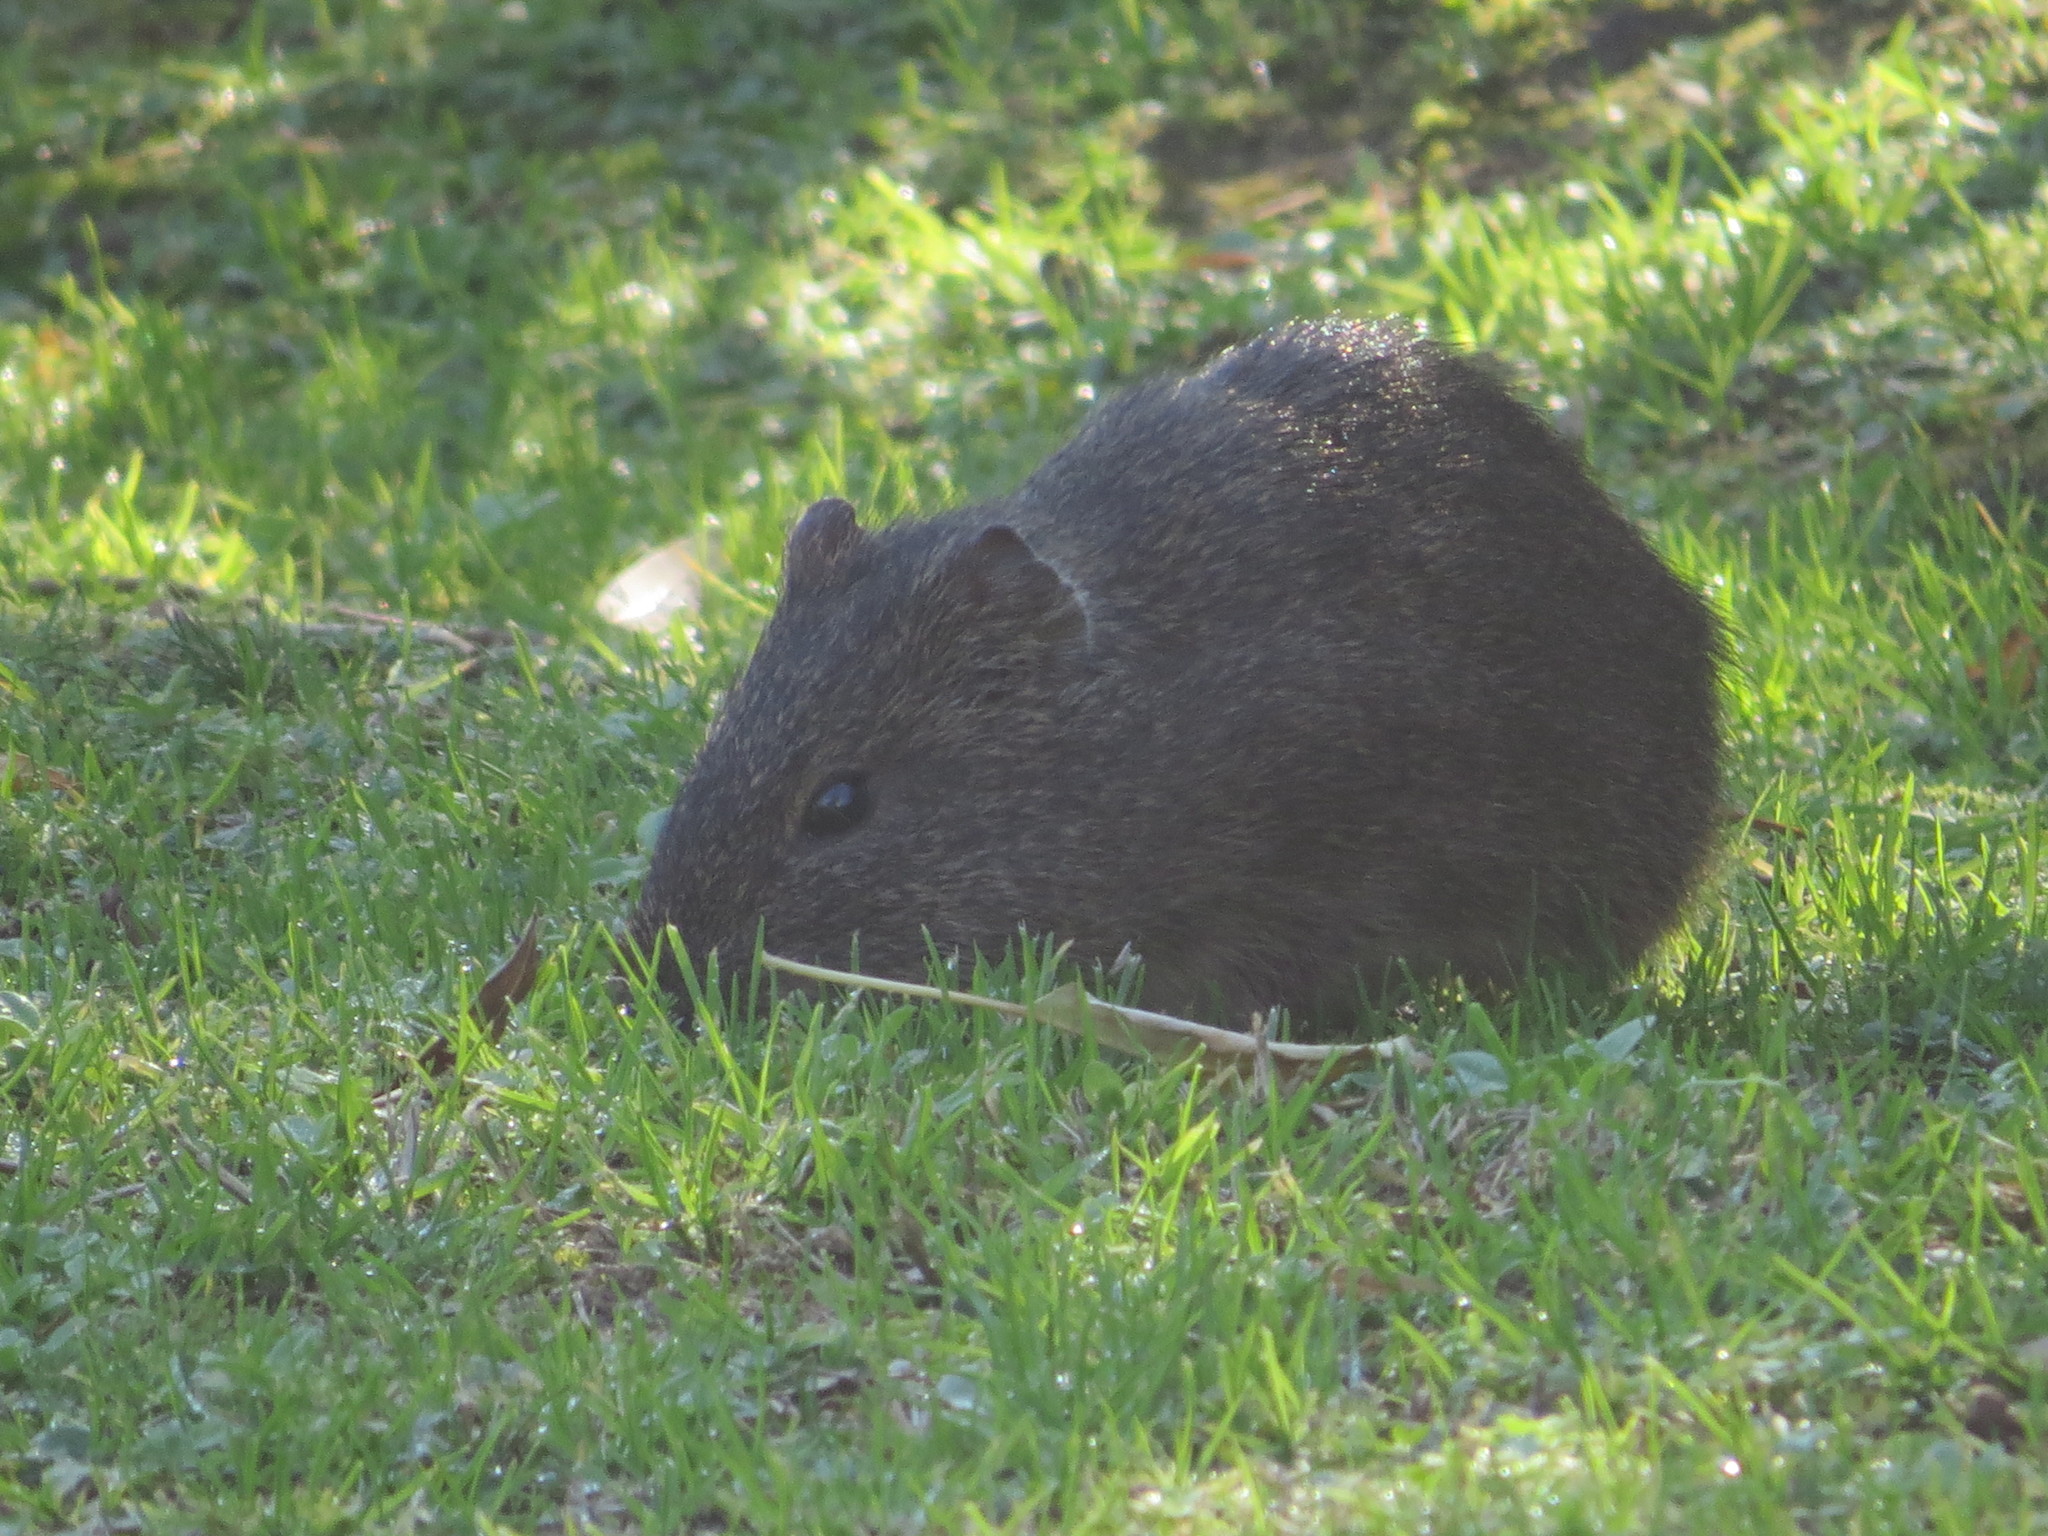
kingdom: Animalia
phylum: Chordata
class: Mammalia
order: Rodentia
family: Caviidae
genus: Cavia
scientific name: Cavia aperea
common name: Brazilian guinea pig
